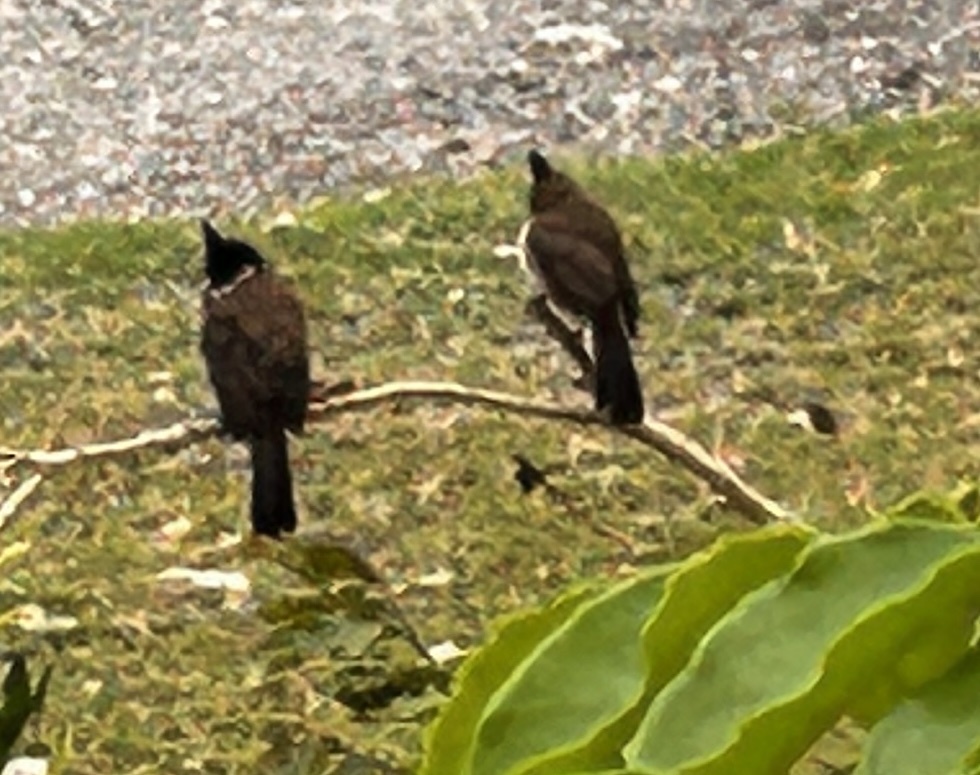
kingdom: Animalia
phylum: Chordata
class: Aves
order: Passeriformes
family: Pycnonotidae
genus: Pycnonotus
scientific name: Pycnonotus jocosus
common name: Red-whiskered bulbul
